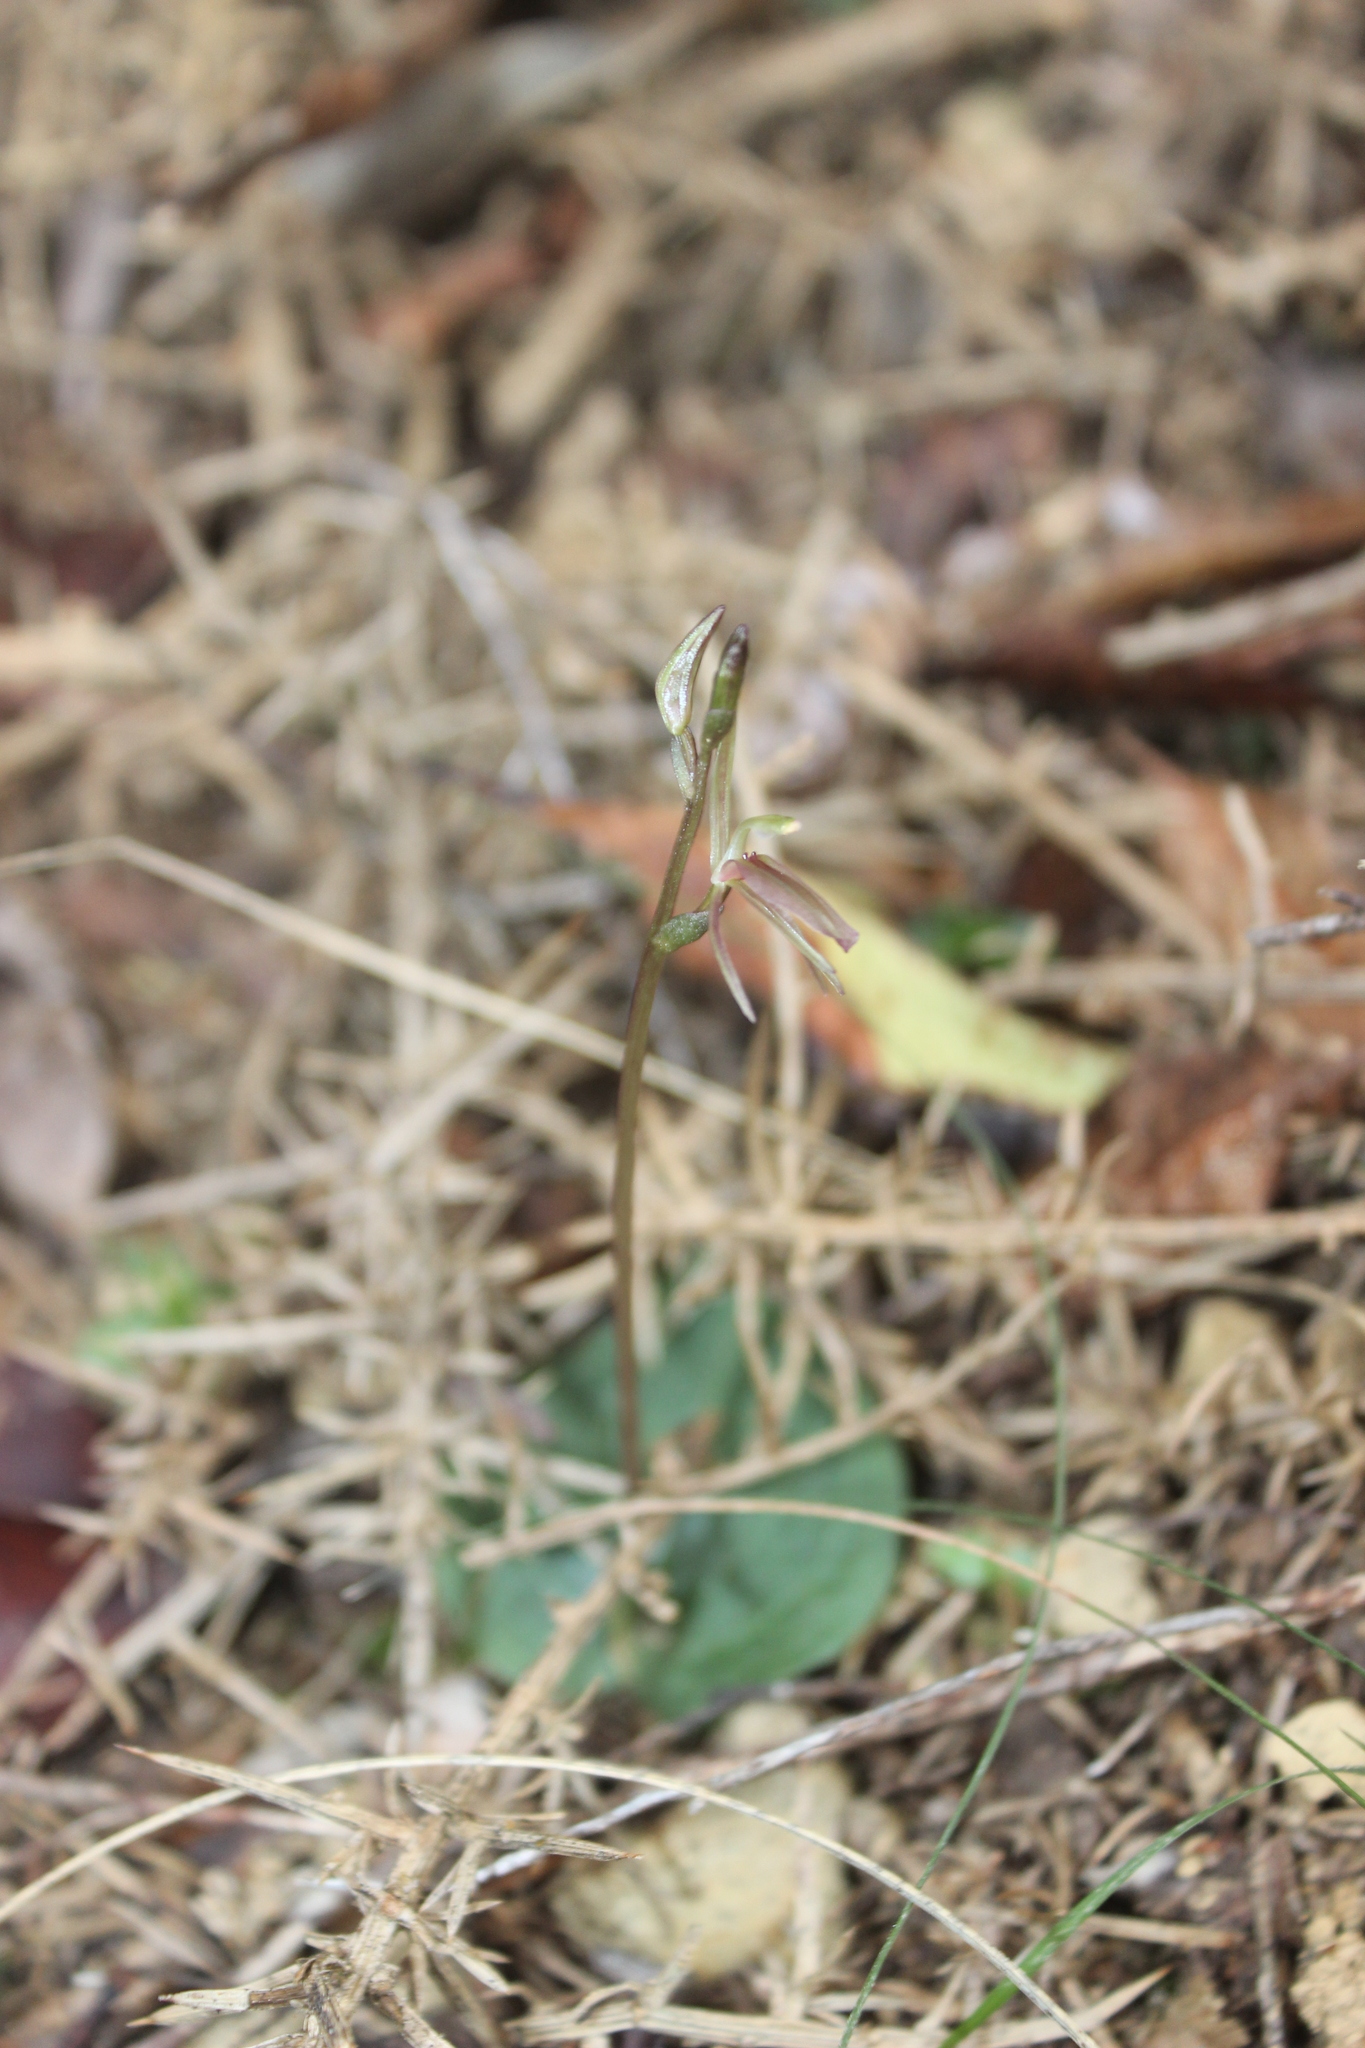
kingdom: Plantae
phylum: Tracheophyta
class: Liliopsida
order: Asparagales
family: Orchidaceae
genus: Cyrtostylis
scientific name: Cyrtostylis rotundifolia
